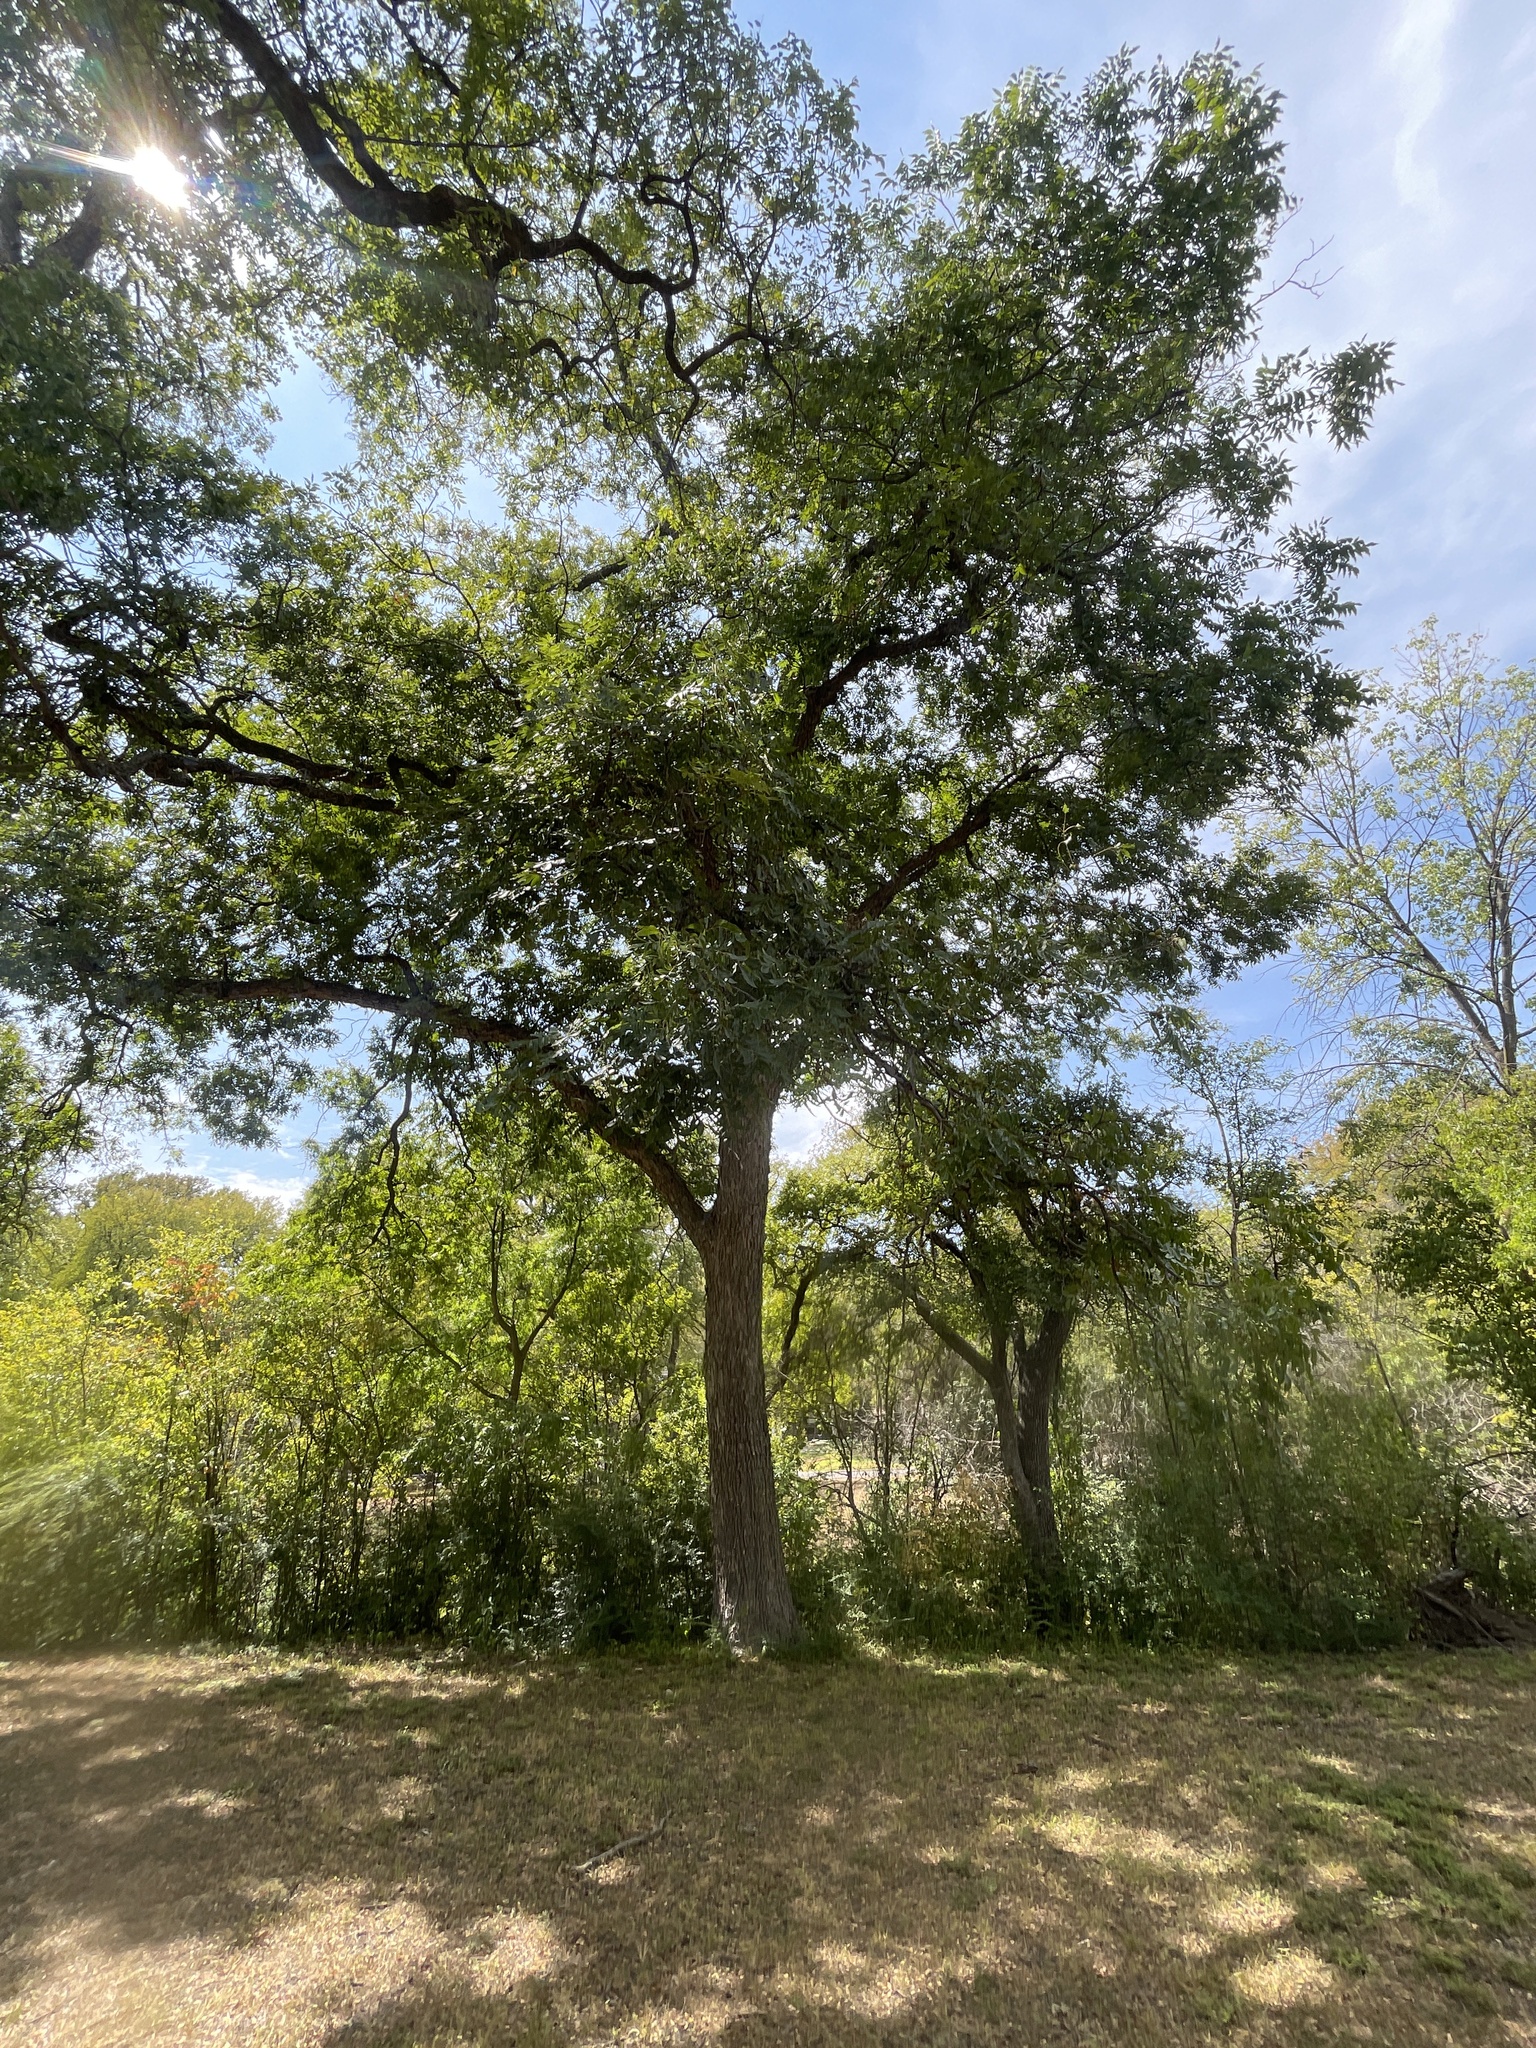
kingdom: Plantae
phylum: Tracheophyta
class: Magnoliopsida
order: Fagales
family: Juglandaceae
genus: Carya
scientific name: Carya illinoinensis
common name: Pecan
